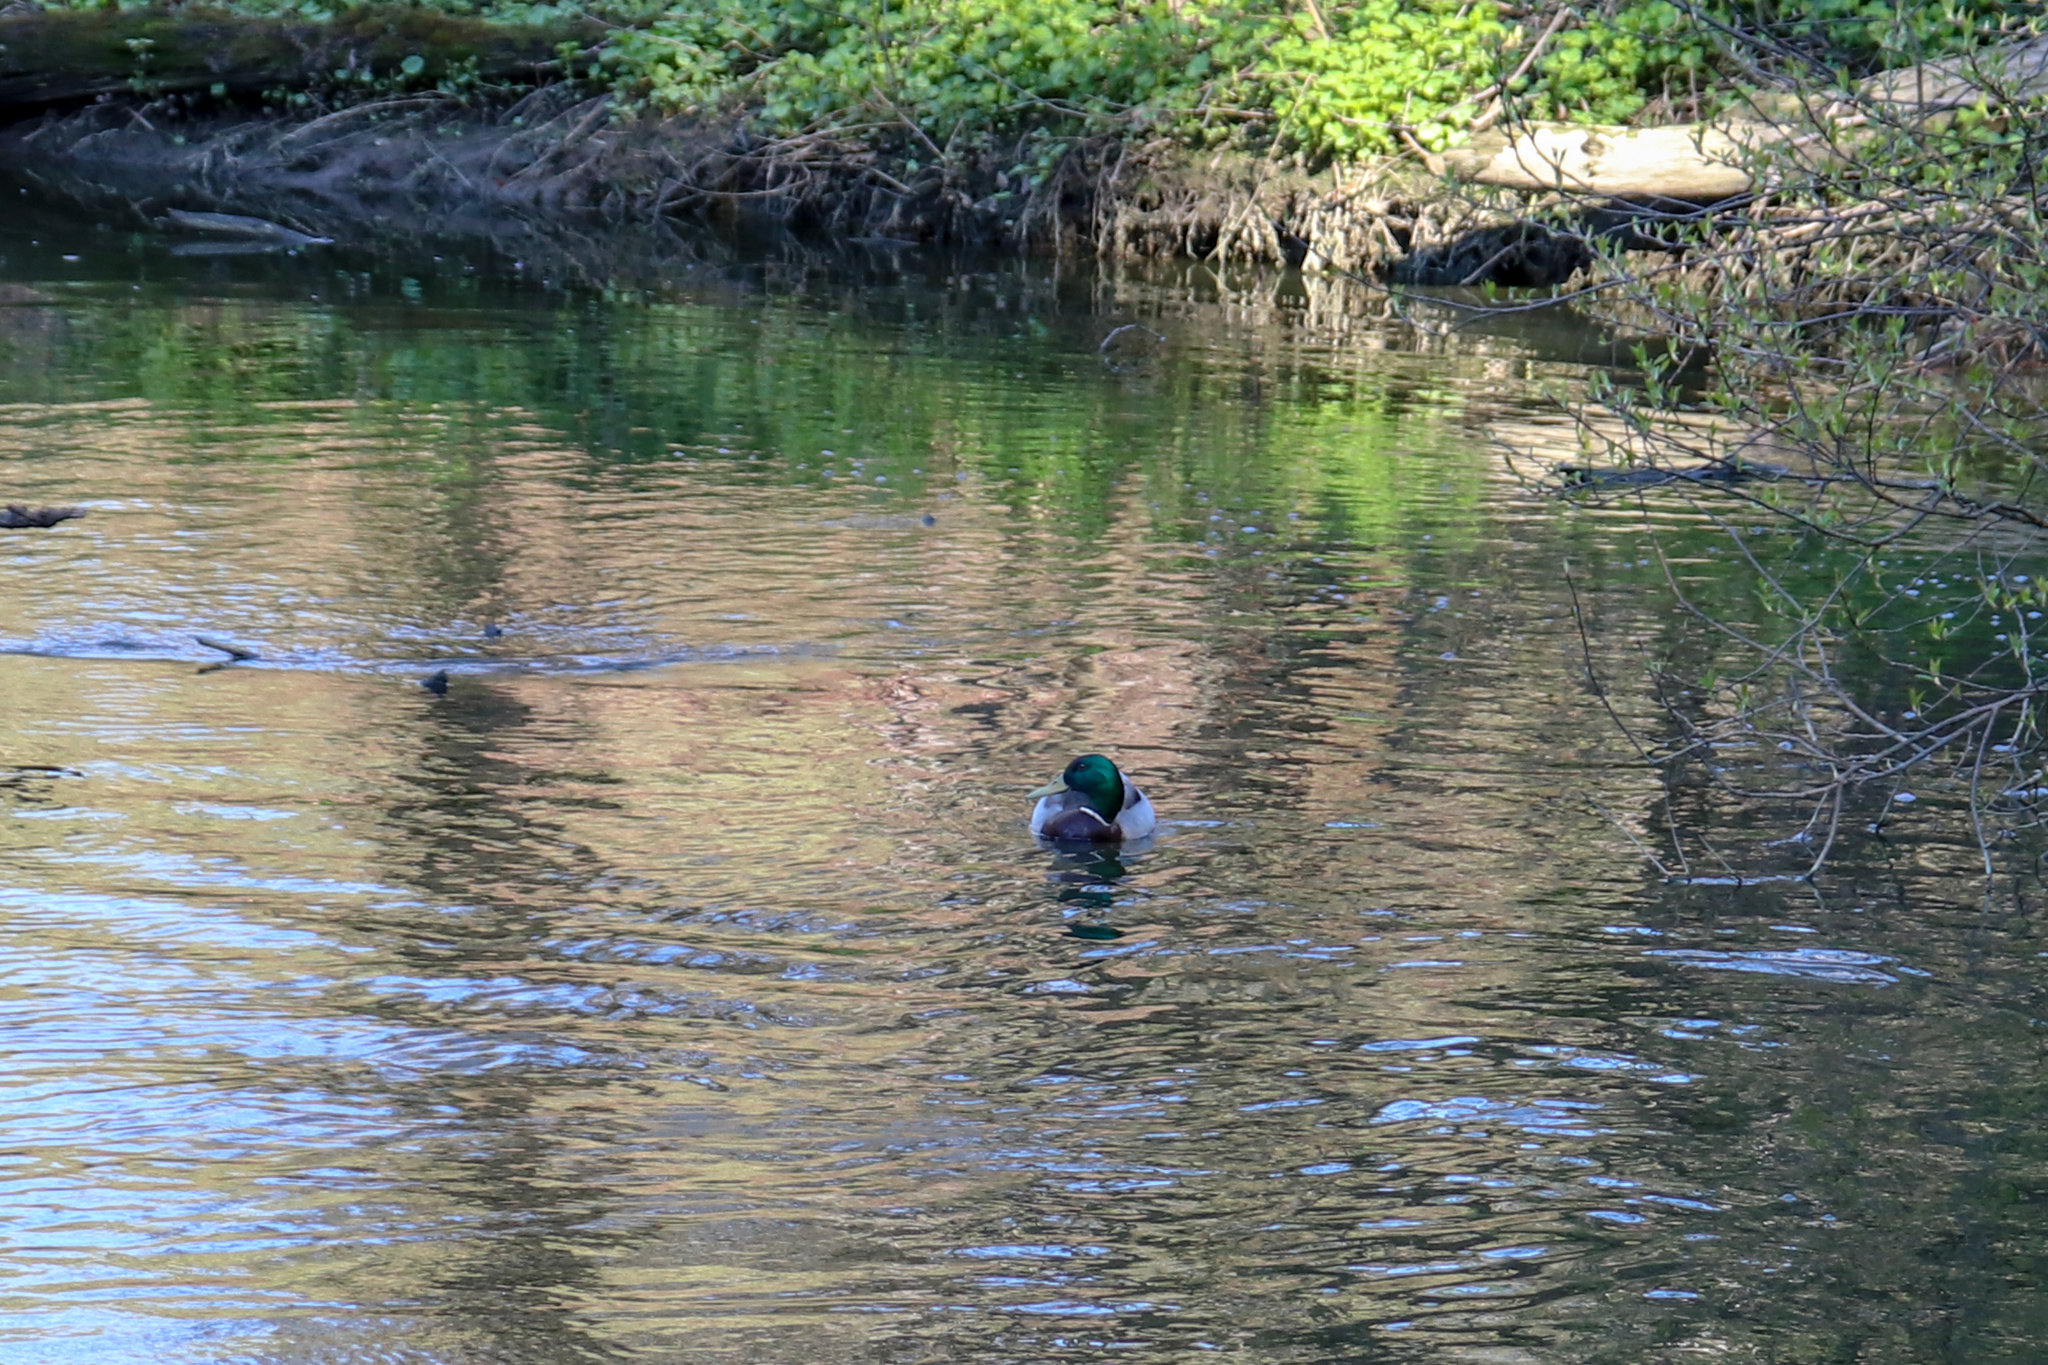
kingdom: Animalia
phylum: Chordata
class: Aves
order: Anseriformes
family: Anatidae
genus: Anas
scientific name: Anas platyrhynchos
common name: Mallard
